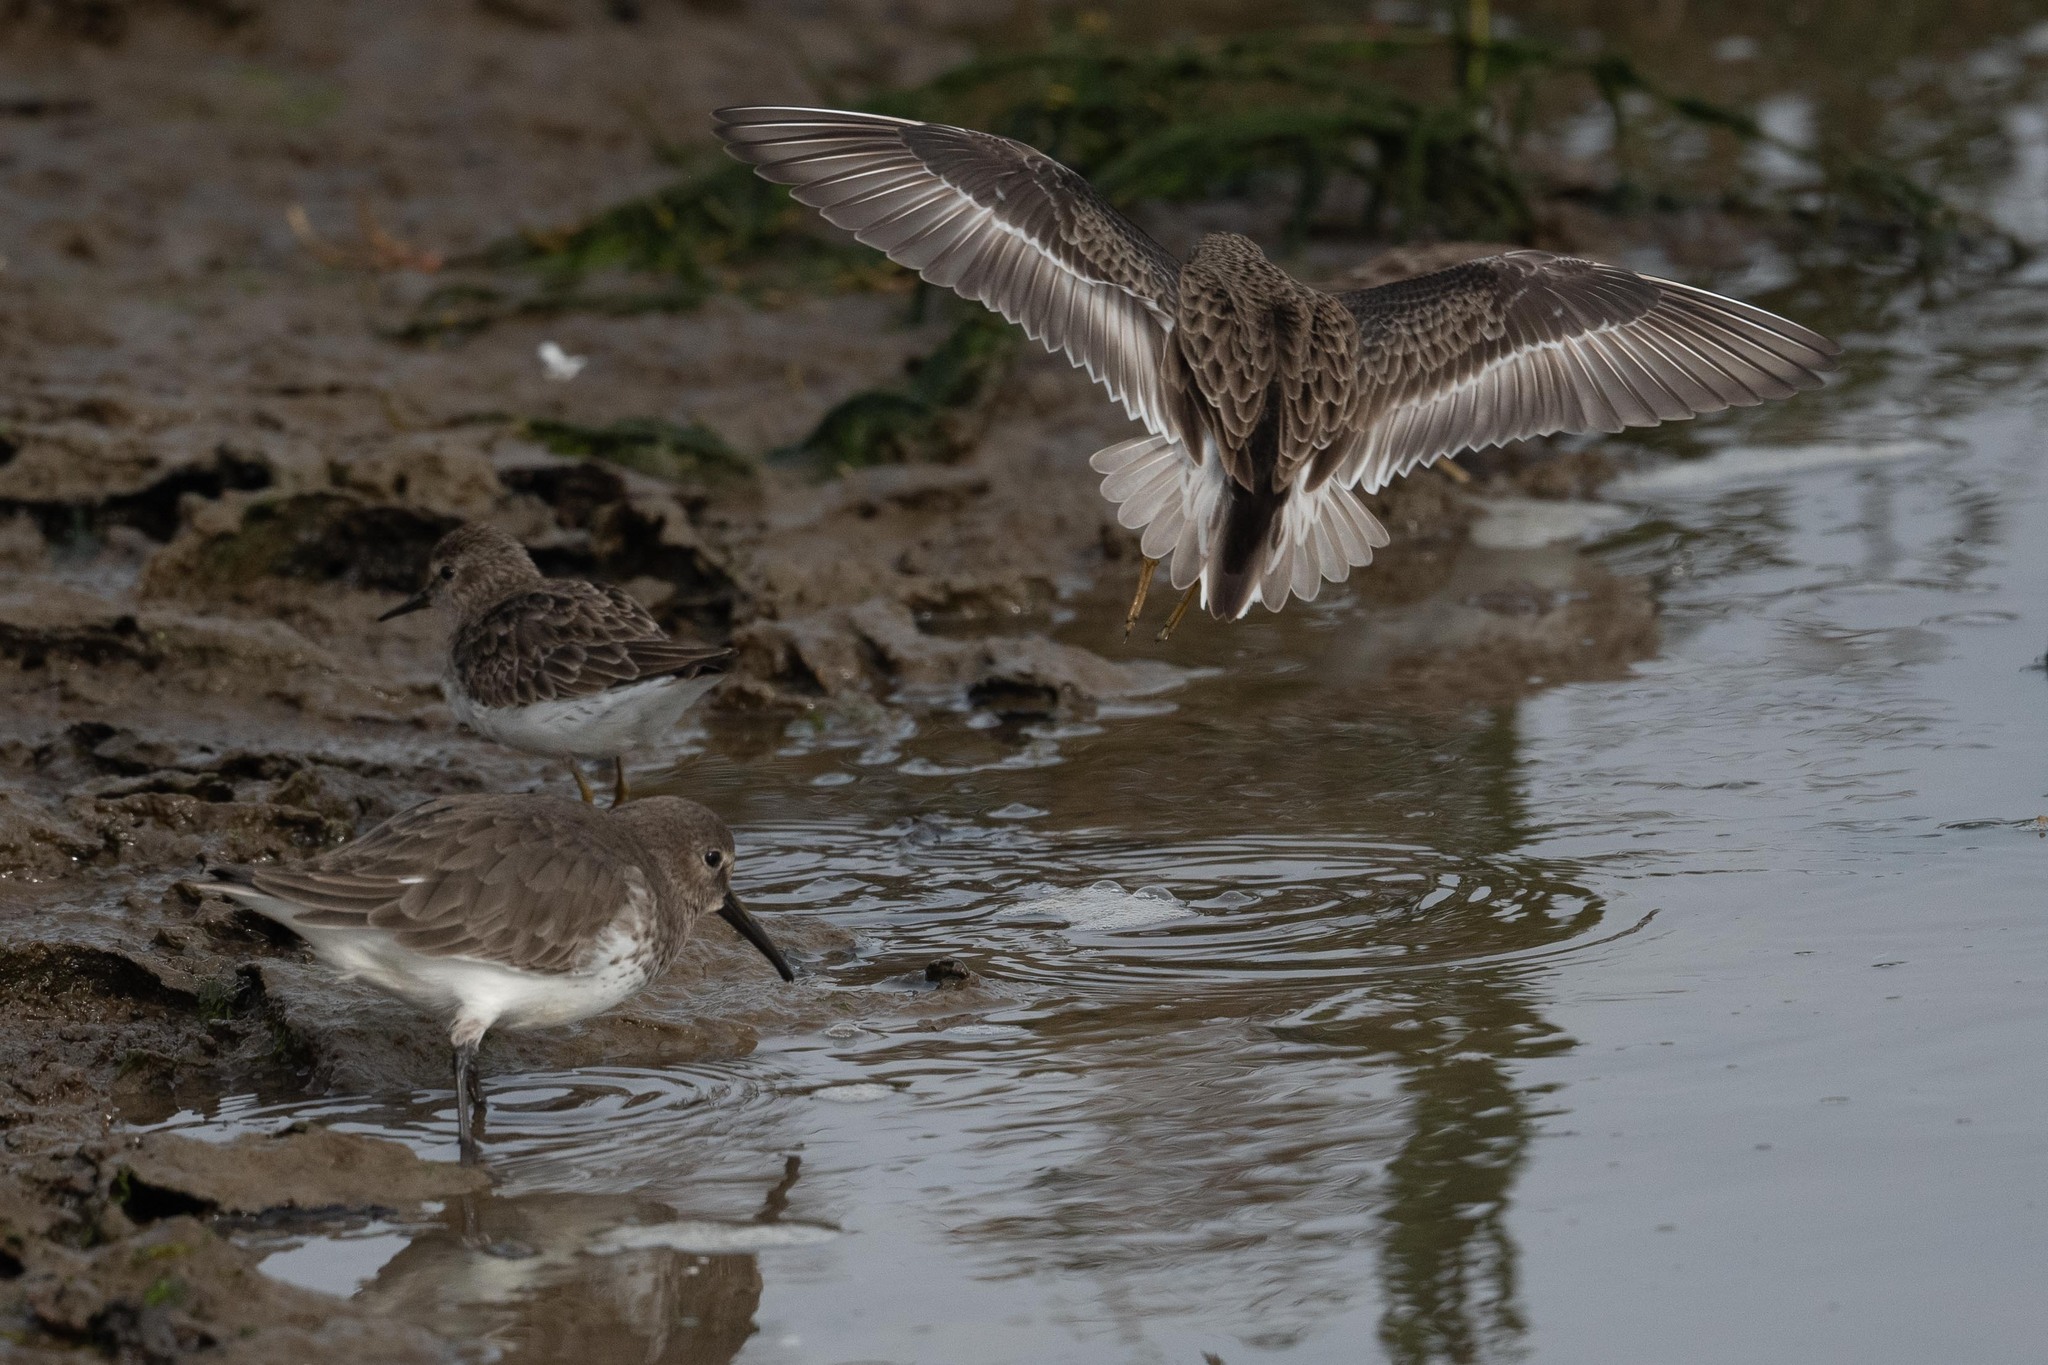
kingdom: Animalia
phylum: Chordata
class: Aves
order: Charadriiformes
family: Scolopacidae
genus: Calidris
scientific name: Calidris minutilla
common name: Least sandpiper
